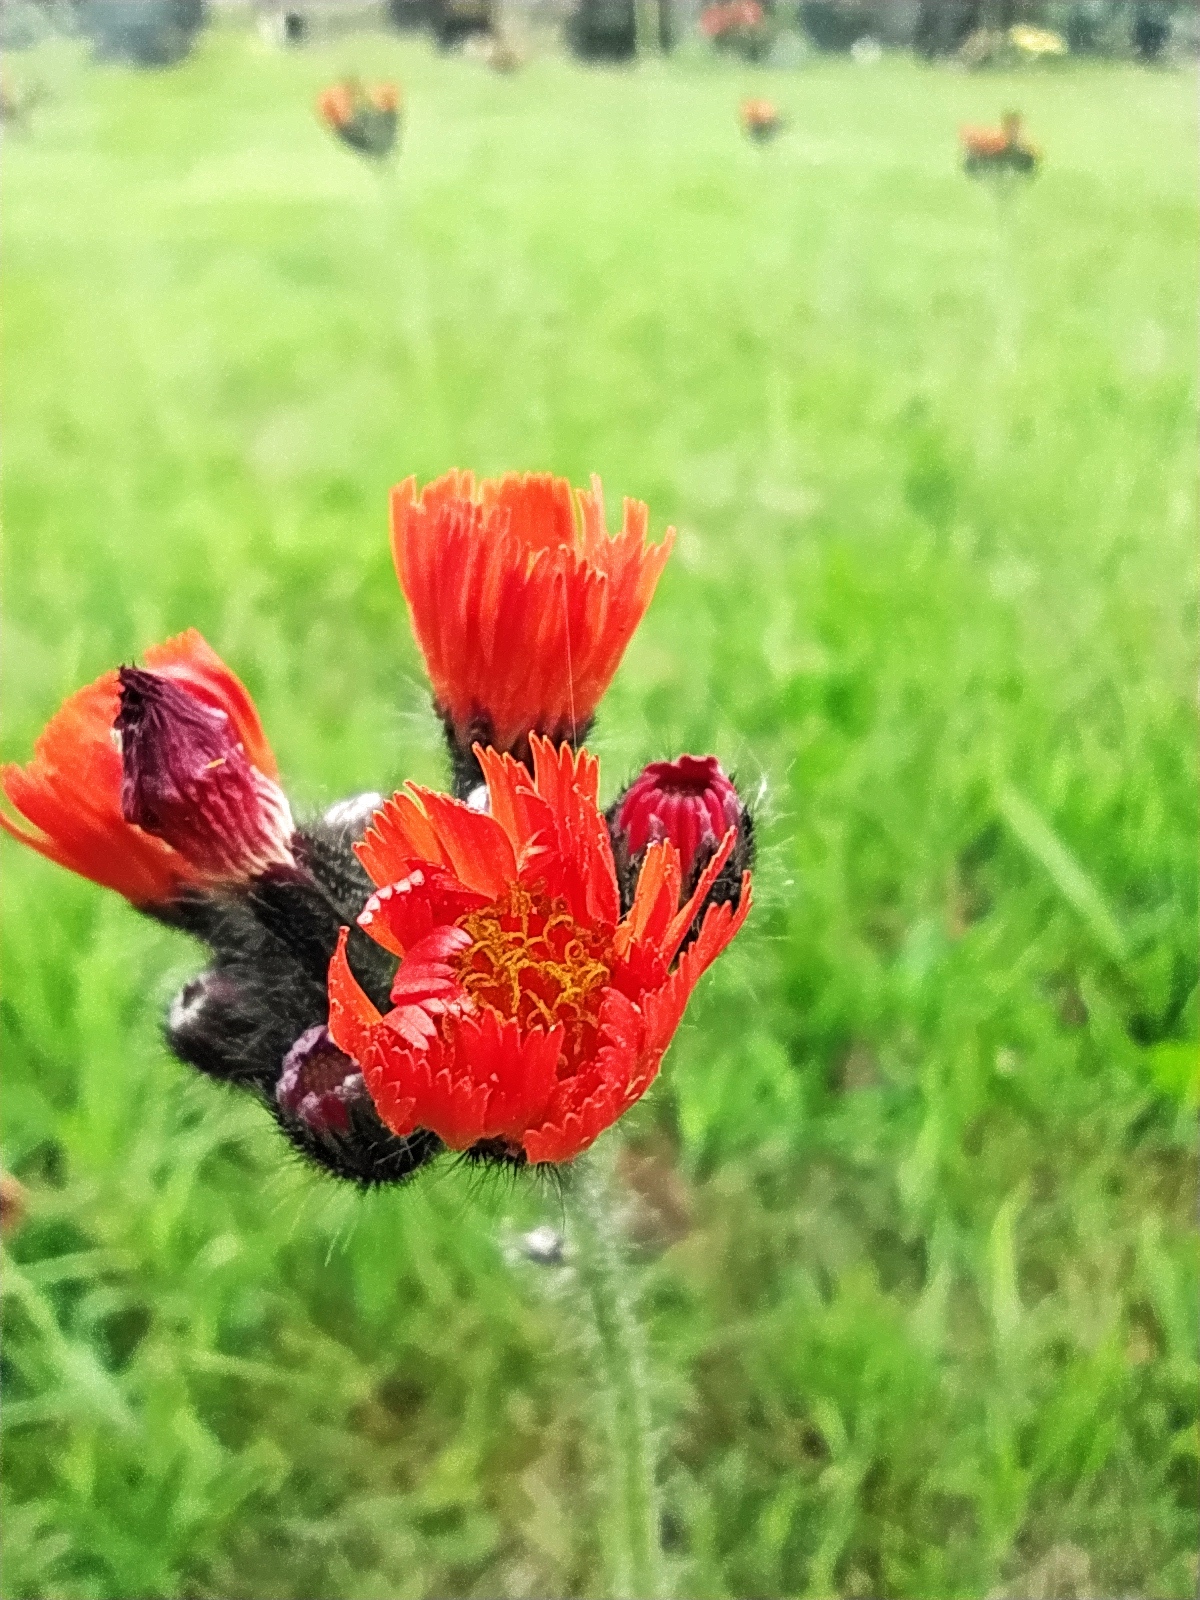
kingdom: Plantae
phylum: Tracheophyta
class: Magnoliopsida
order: Asterales
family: Asteraceae
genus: Pilosella
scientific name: Pilosella aurantiaca
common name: Fox-and-cubs
